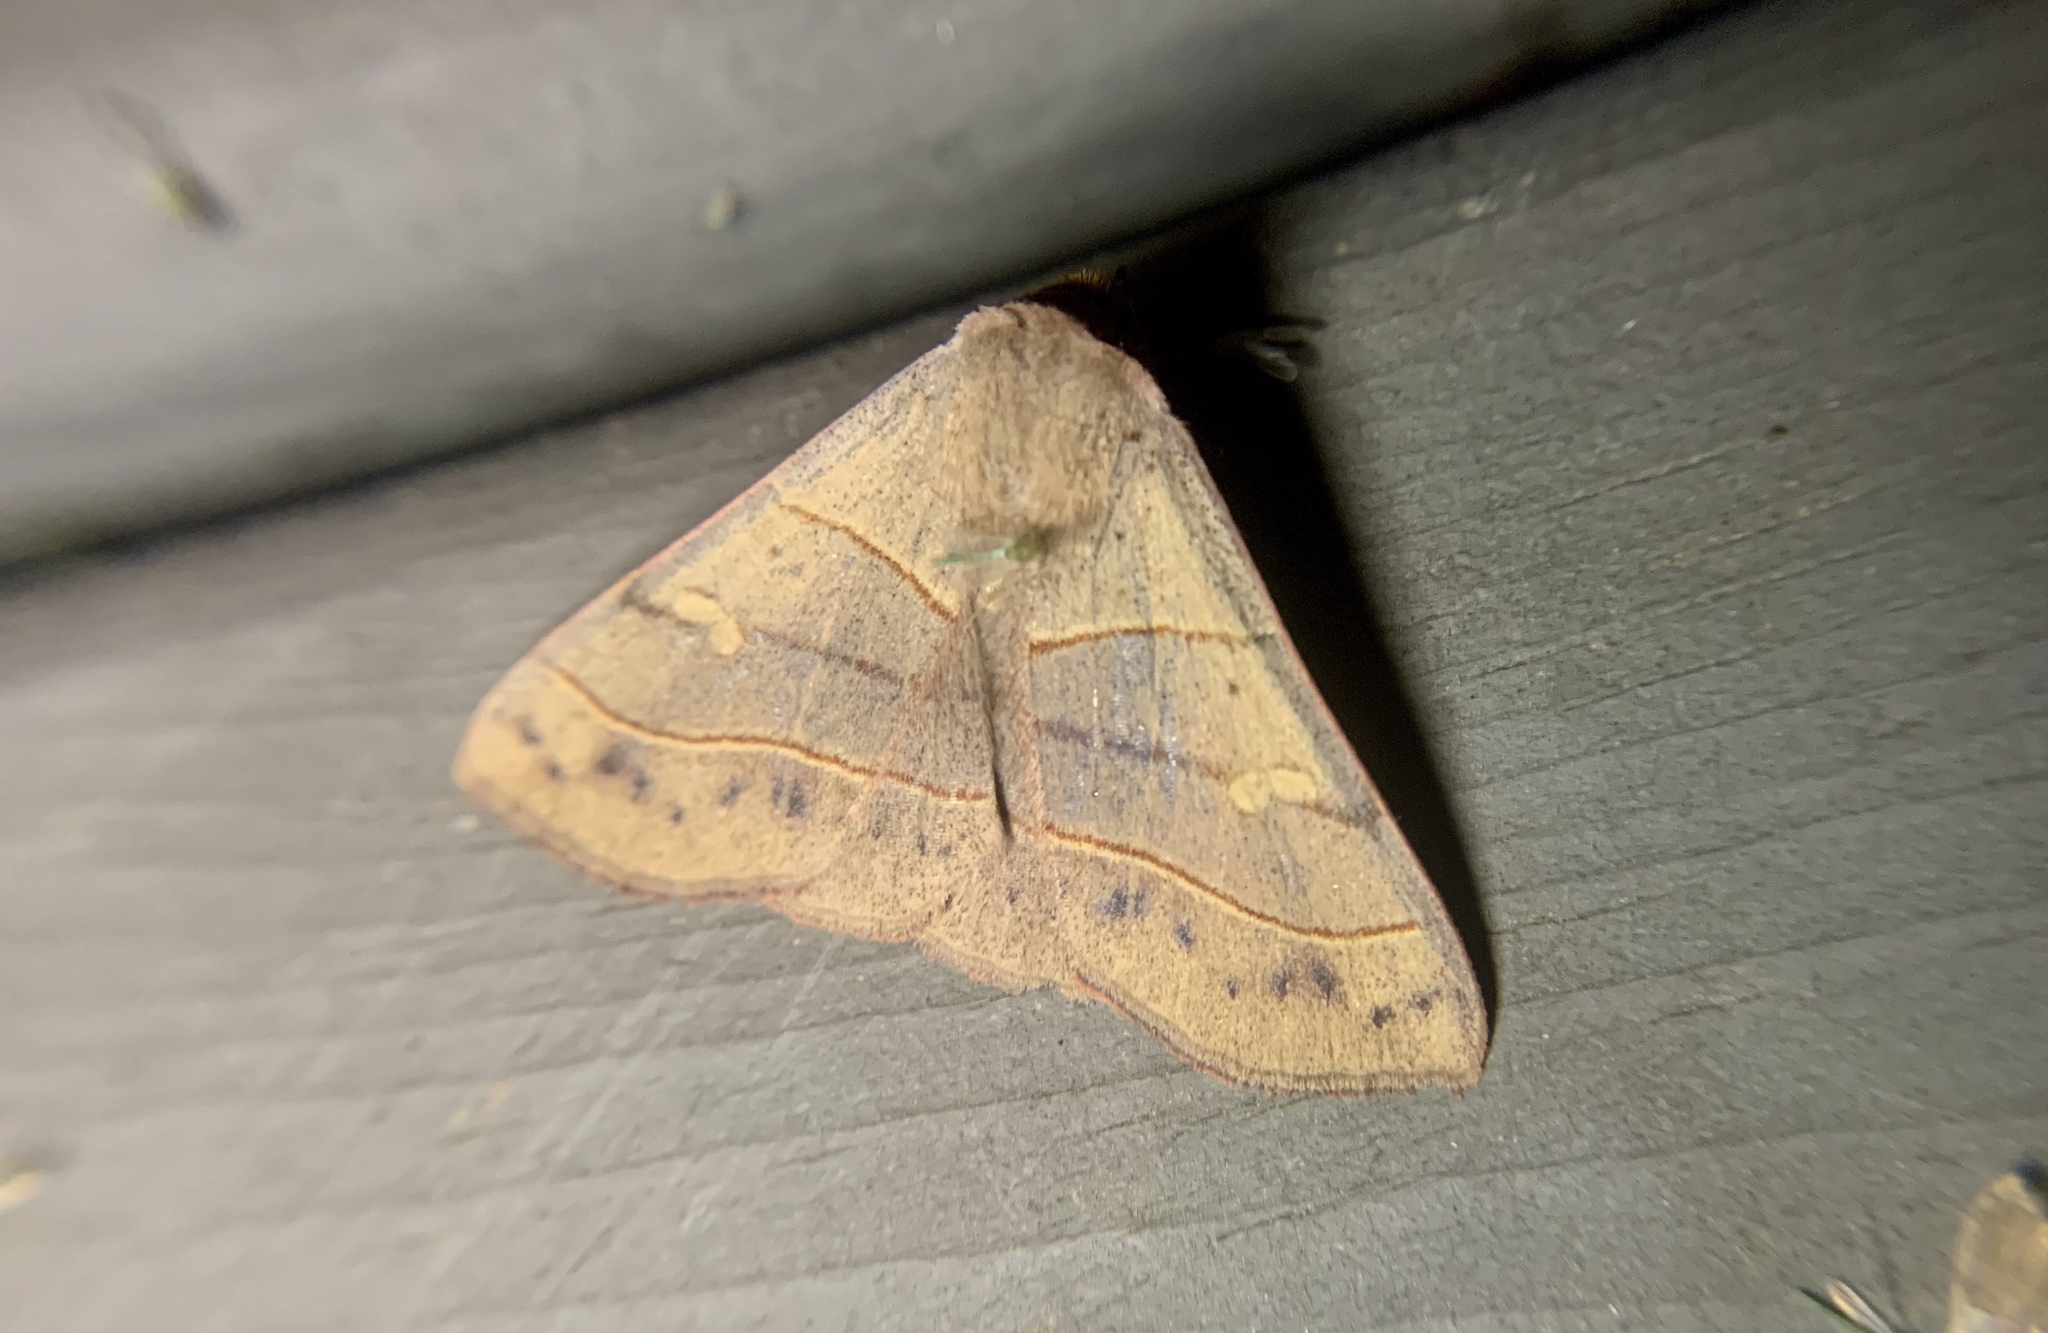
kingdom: Animalia
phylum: Arthropoda
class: Insecta
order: Lepidoptera
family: Erebidae
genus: Panopoda
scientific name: Panopoda rufimargo
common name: Red-lined panopoda moth
